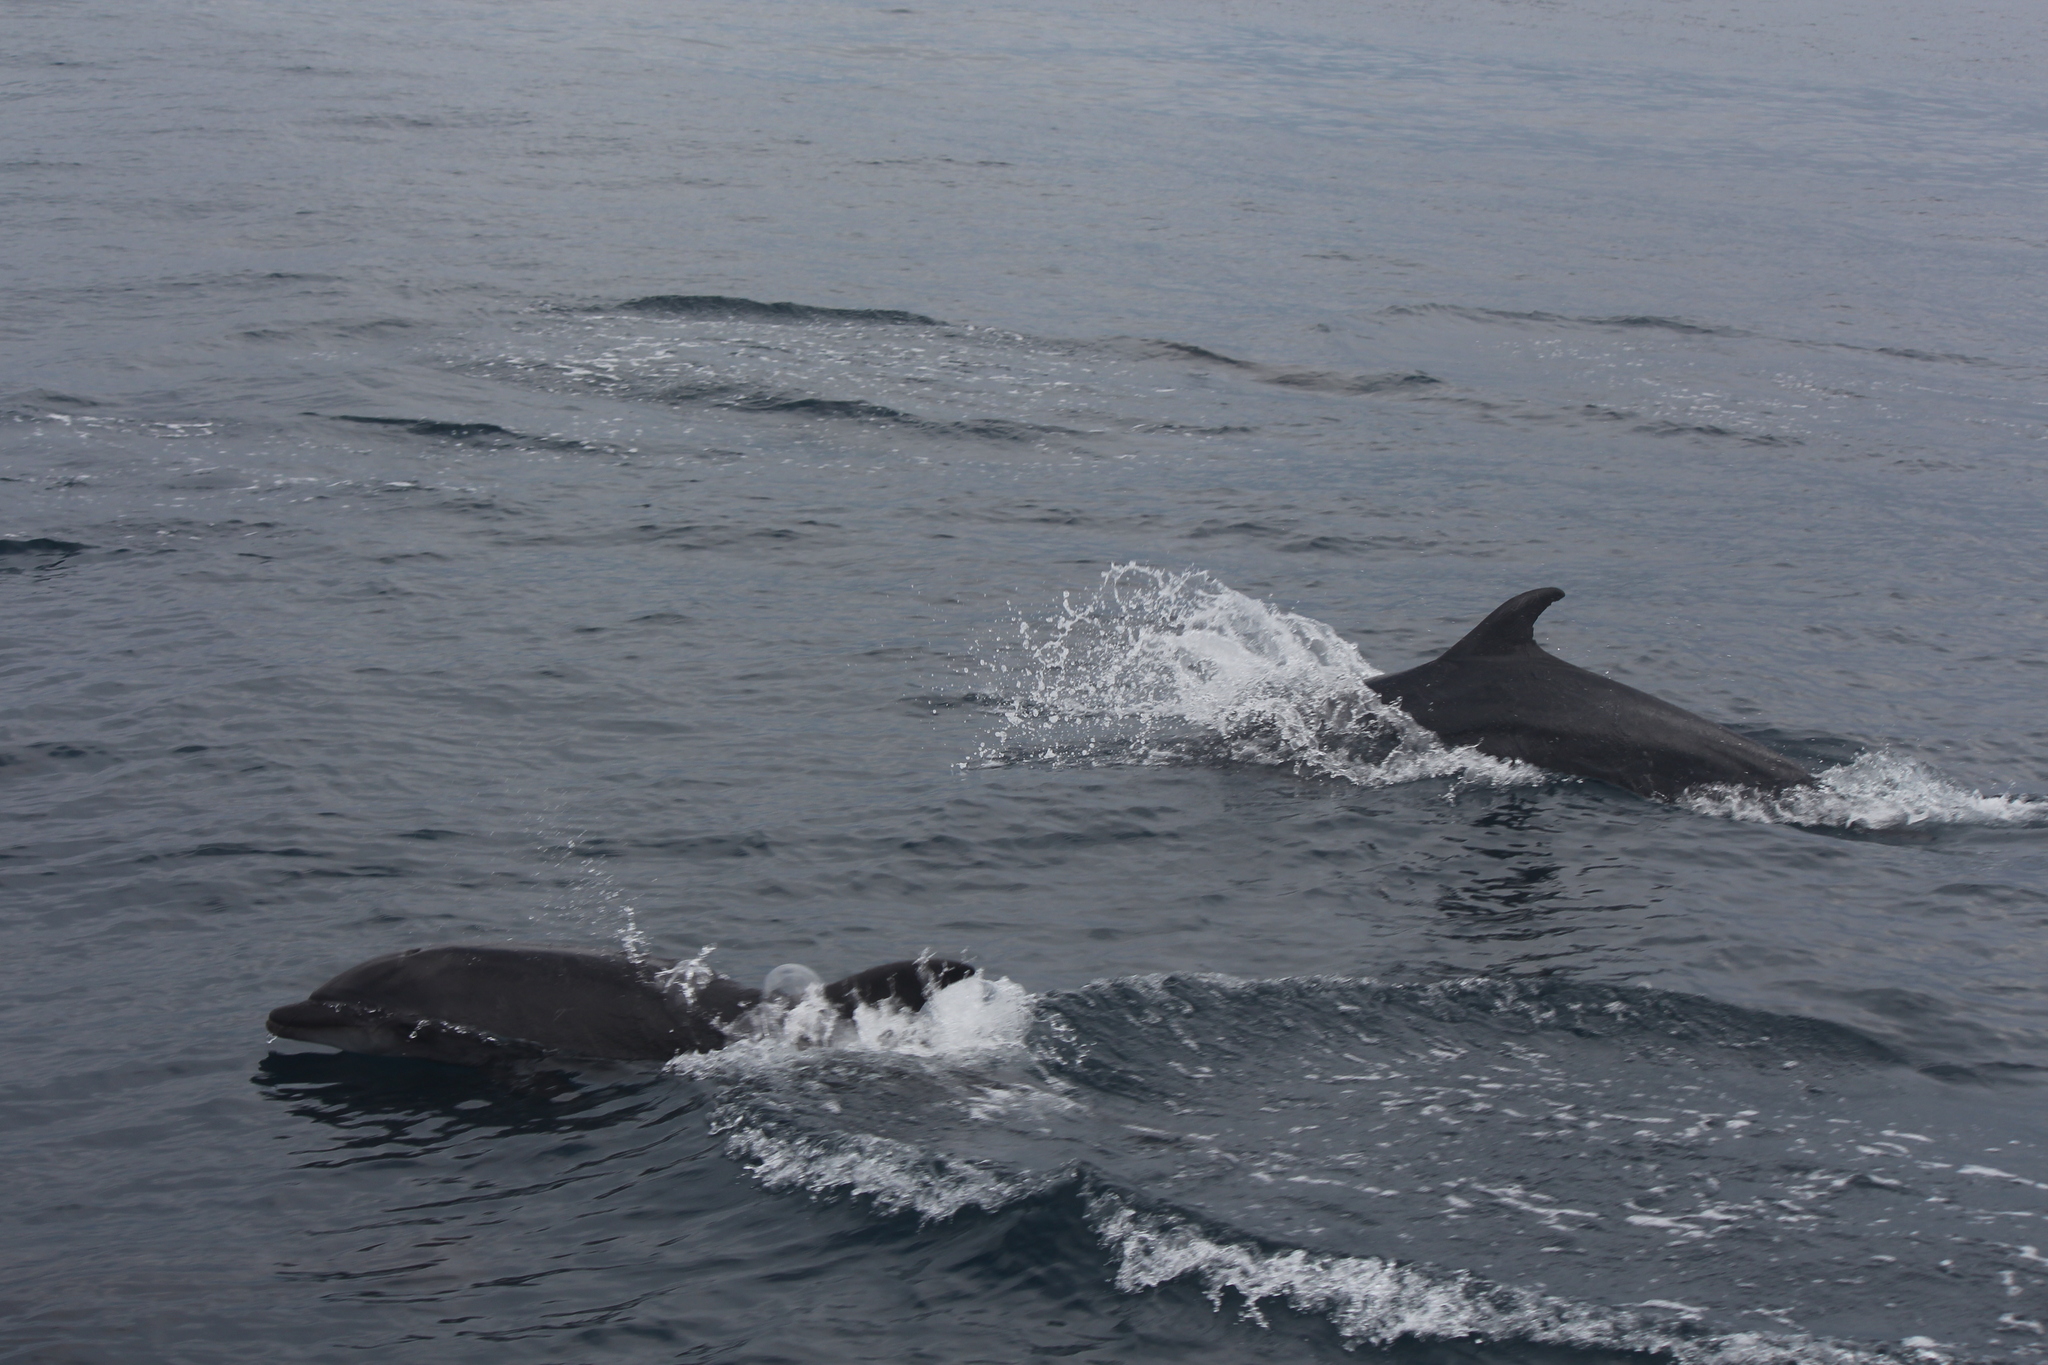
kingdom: Animalia
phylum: Chordata
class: Mammalia
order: Cetacea
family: Delphinidae
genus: Tursiops
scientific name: Tursiops truncatus
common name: Bottlenose dolphin
